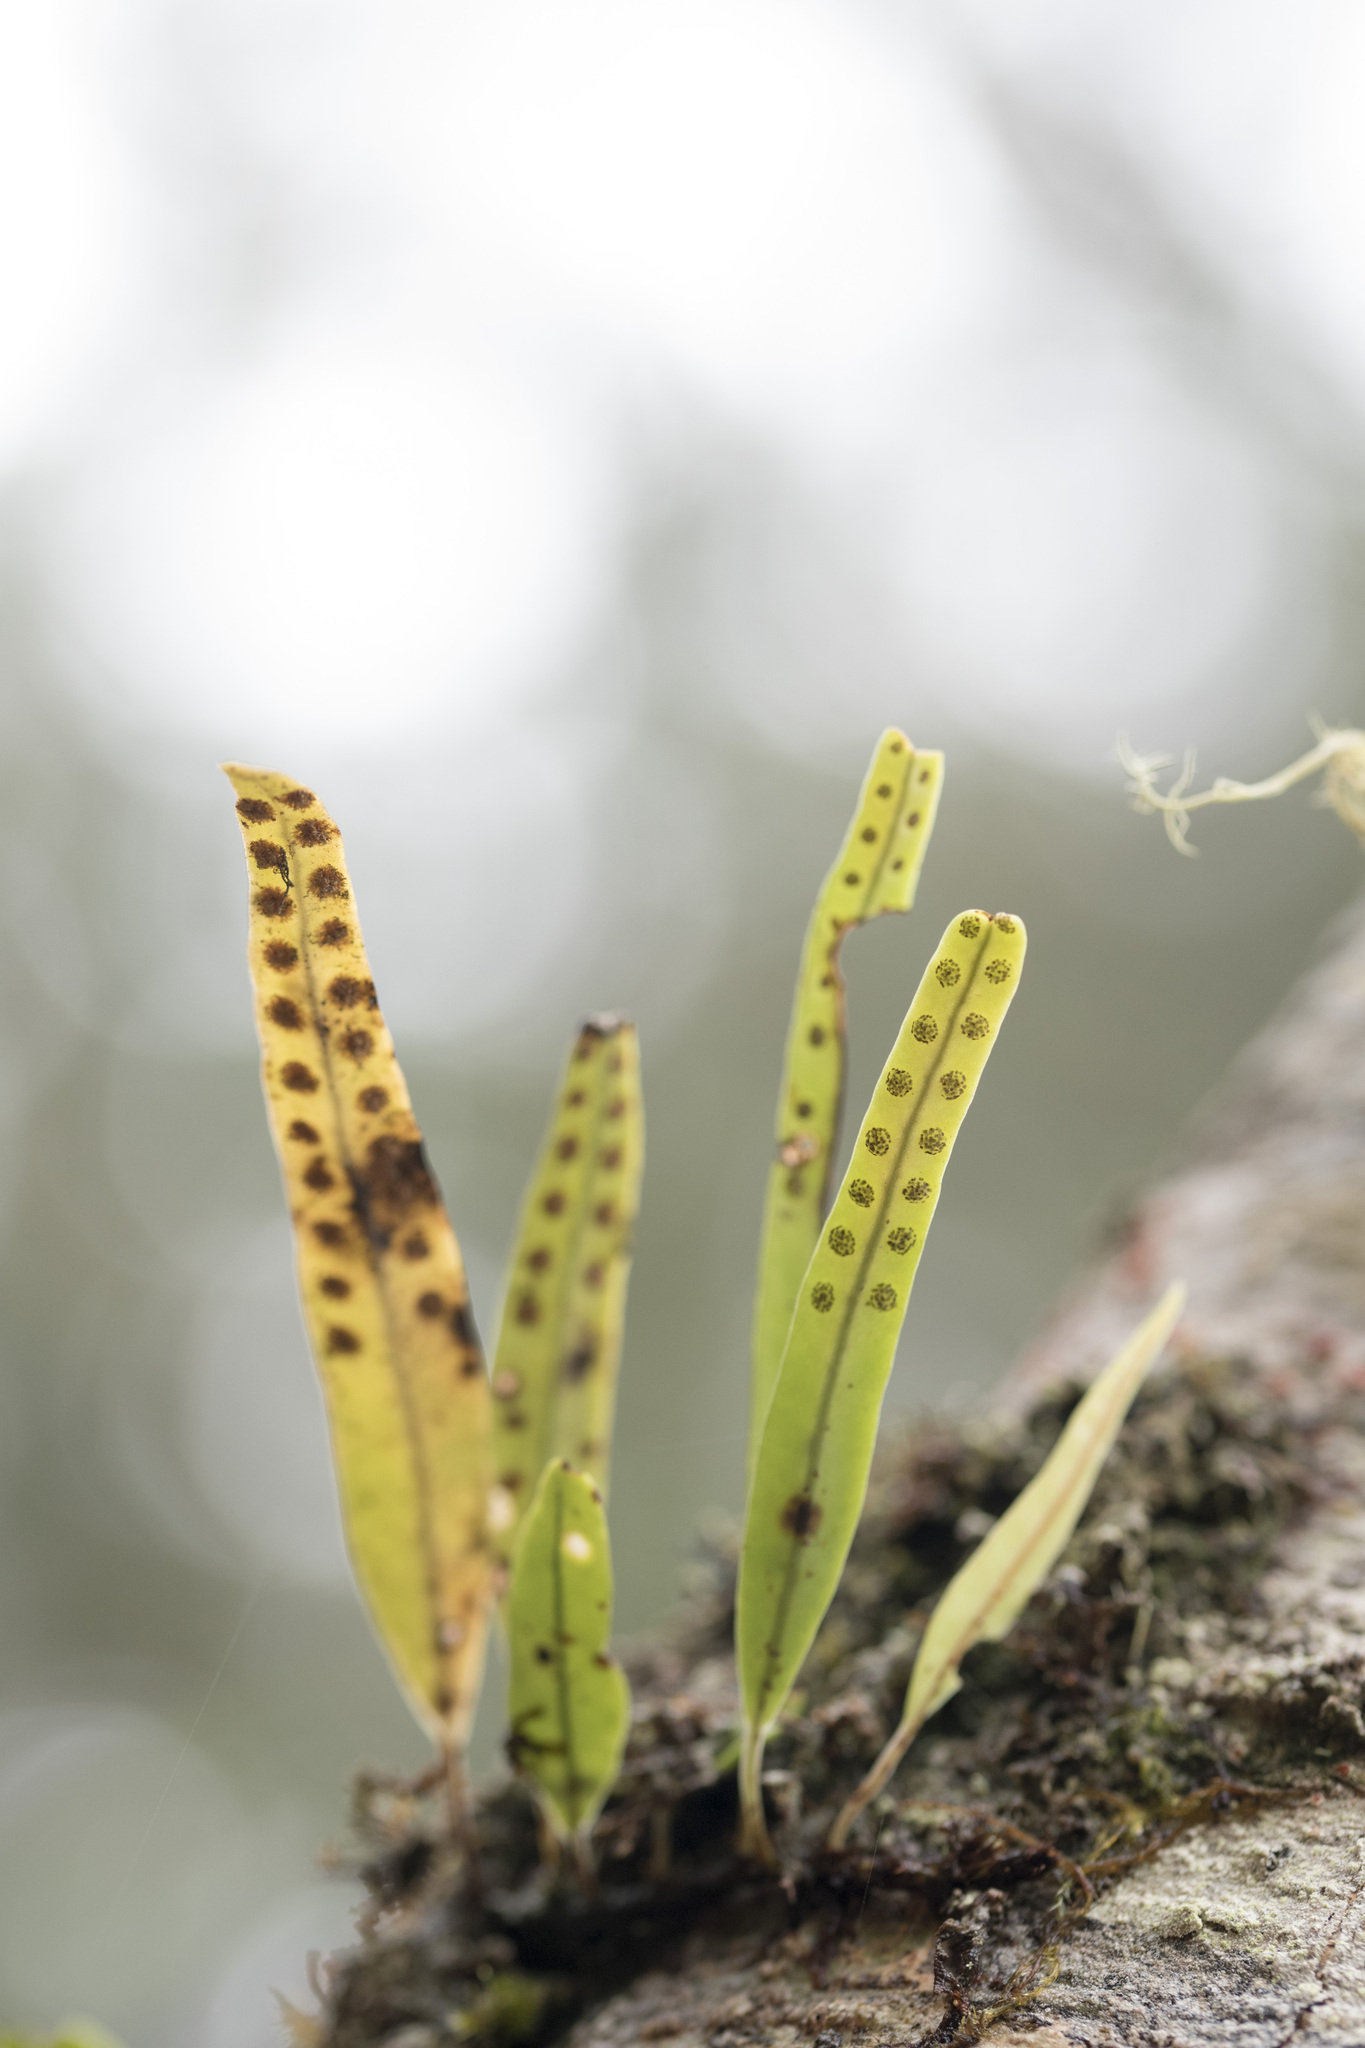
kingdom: Plantae
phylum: Tracheophyta
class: Polypodiopsida
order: Polypodiales
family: Polypodiaceae
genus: Lepisorus
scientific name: Lepisorus thunbergianus
